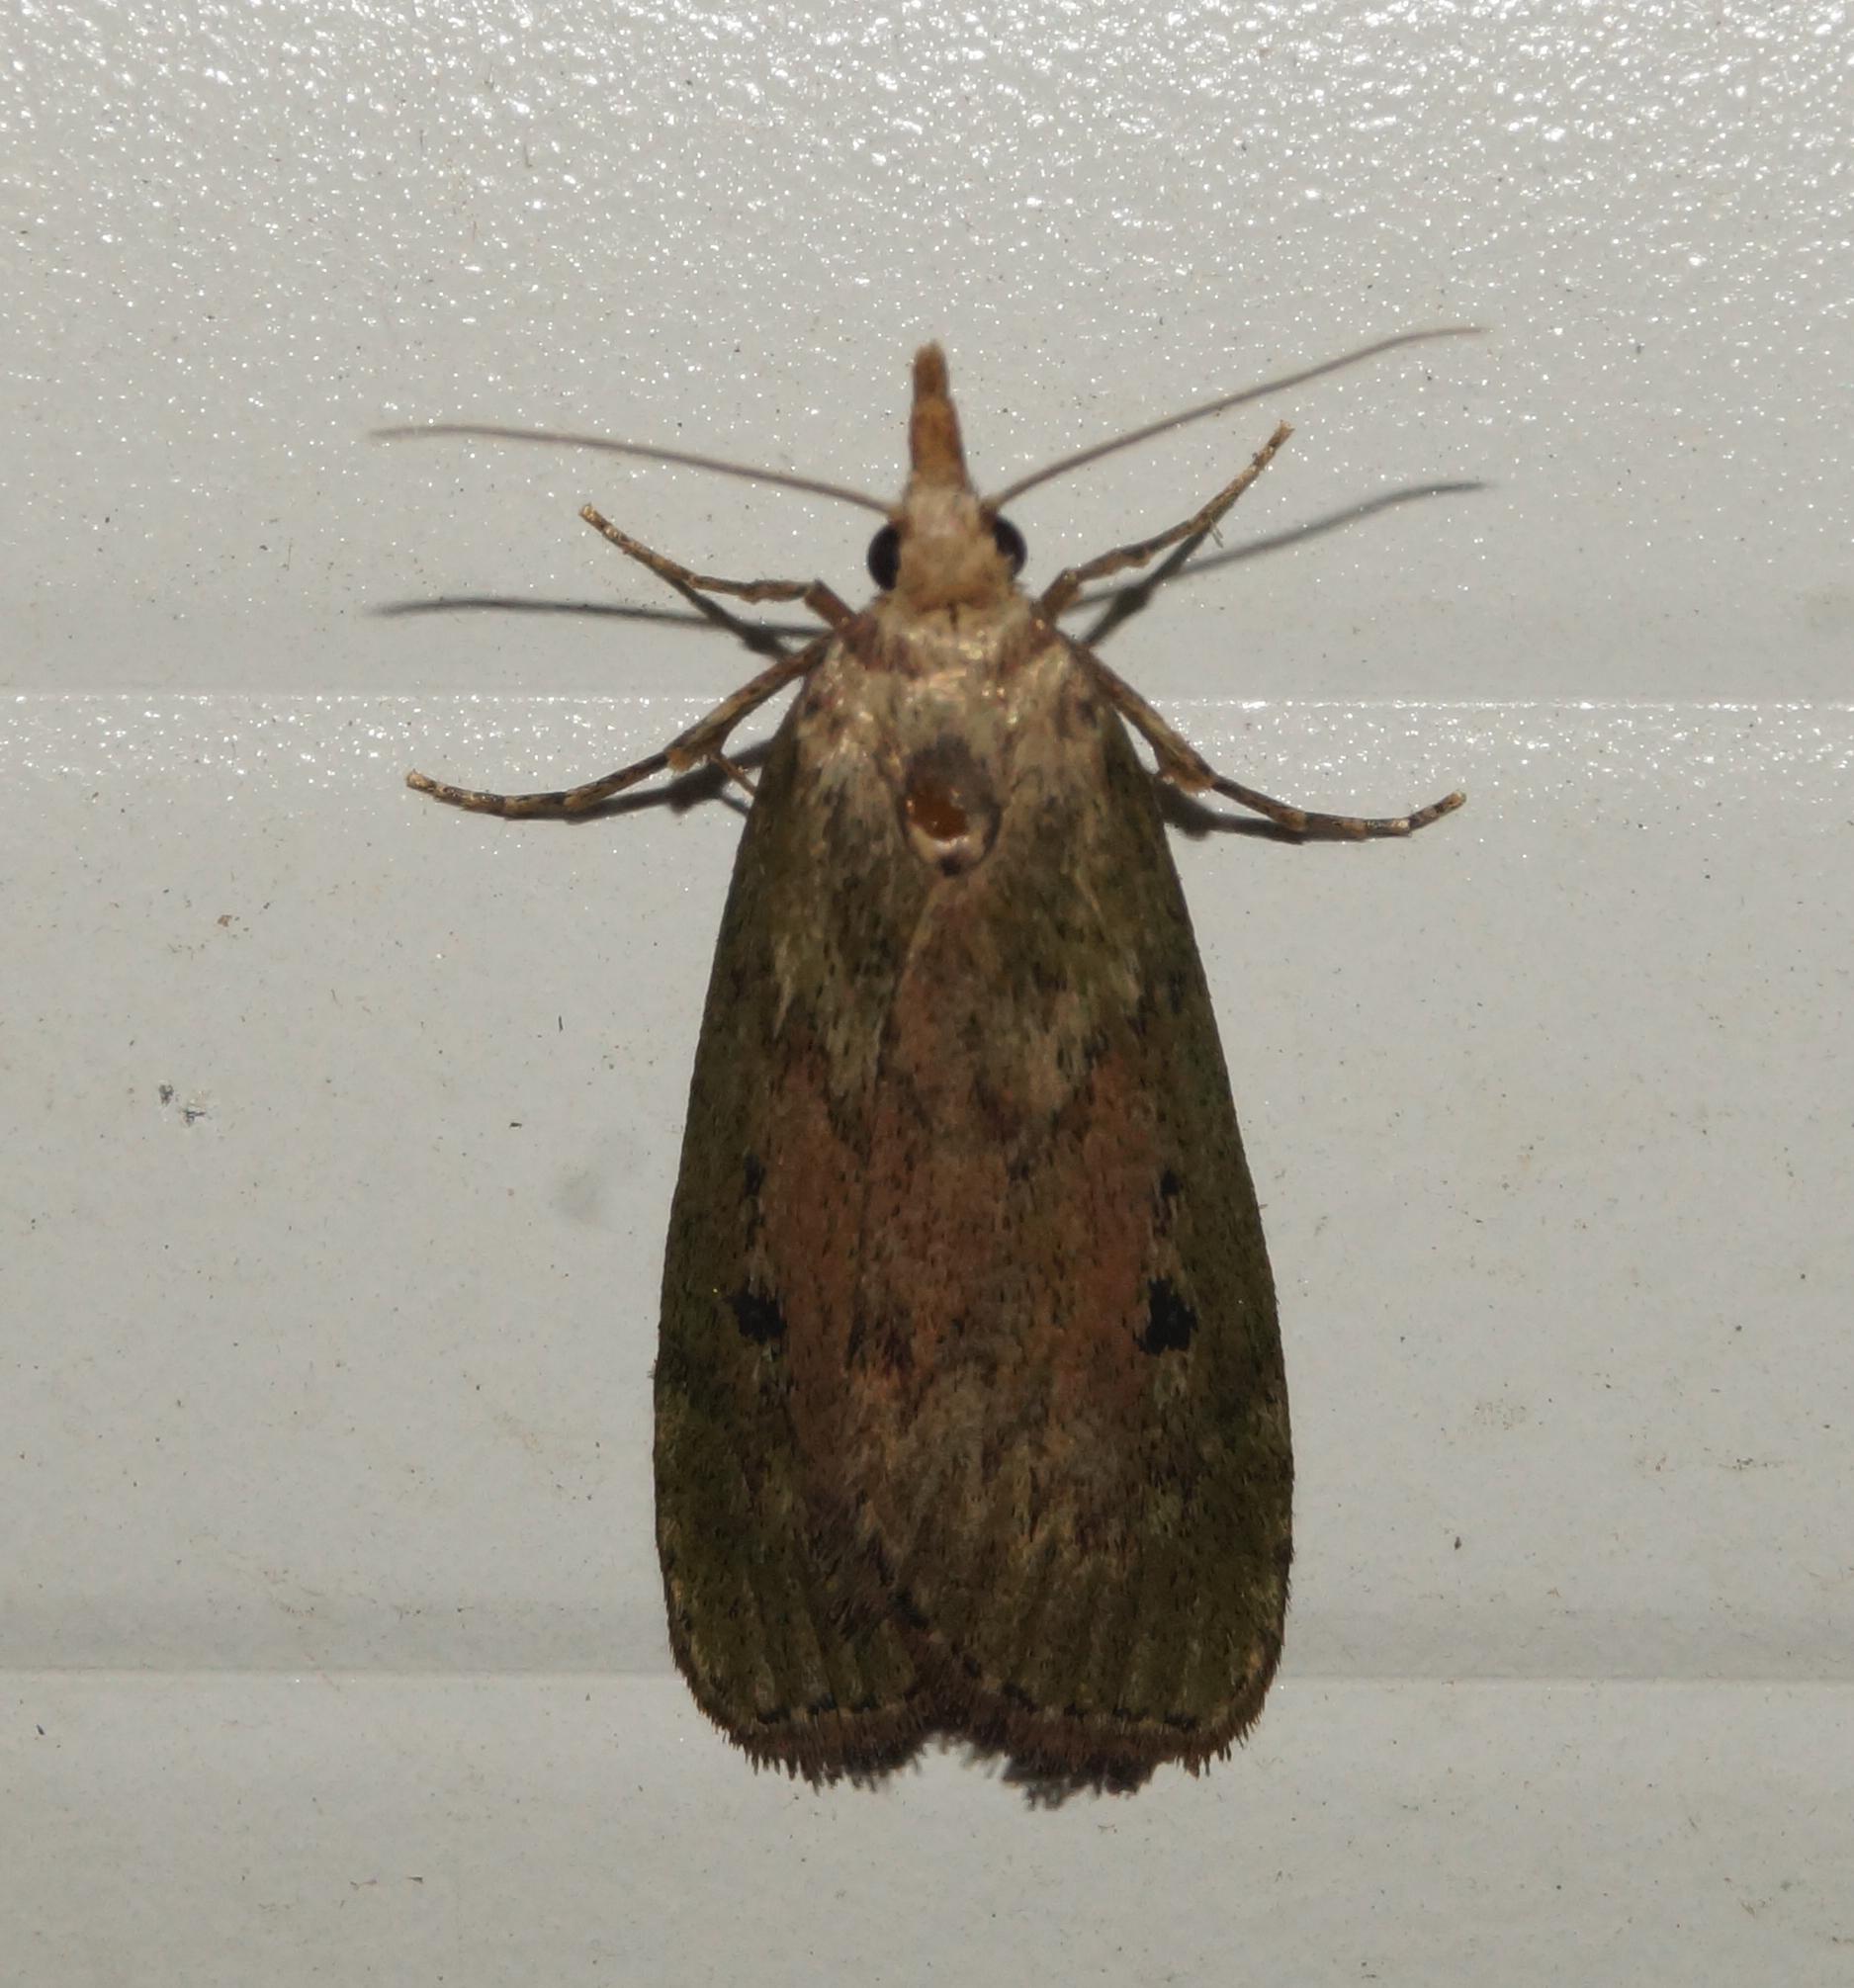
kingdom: Animalia
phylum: Arthropoda
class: Insecta
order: Lepidoptera
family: Pyralidae
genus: Aphomia
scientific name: Aphomia sociella
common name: Bee moth
